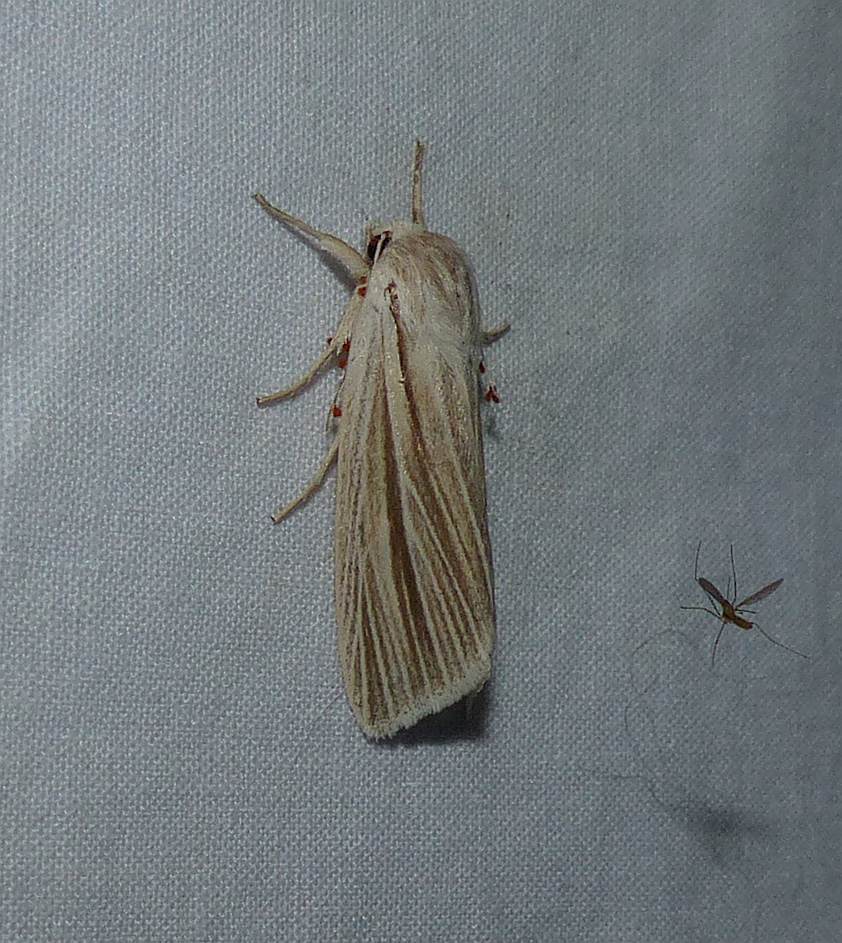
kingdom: Animalia
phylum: Arthropoda
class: Insecta
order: Lepidoptera
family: Noctuidae
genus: Acronicta
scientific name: Acronicta insularis
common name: Henry's marsh moth
